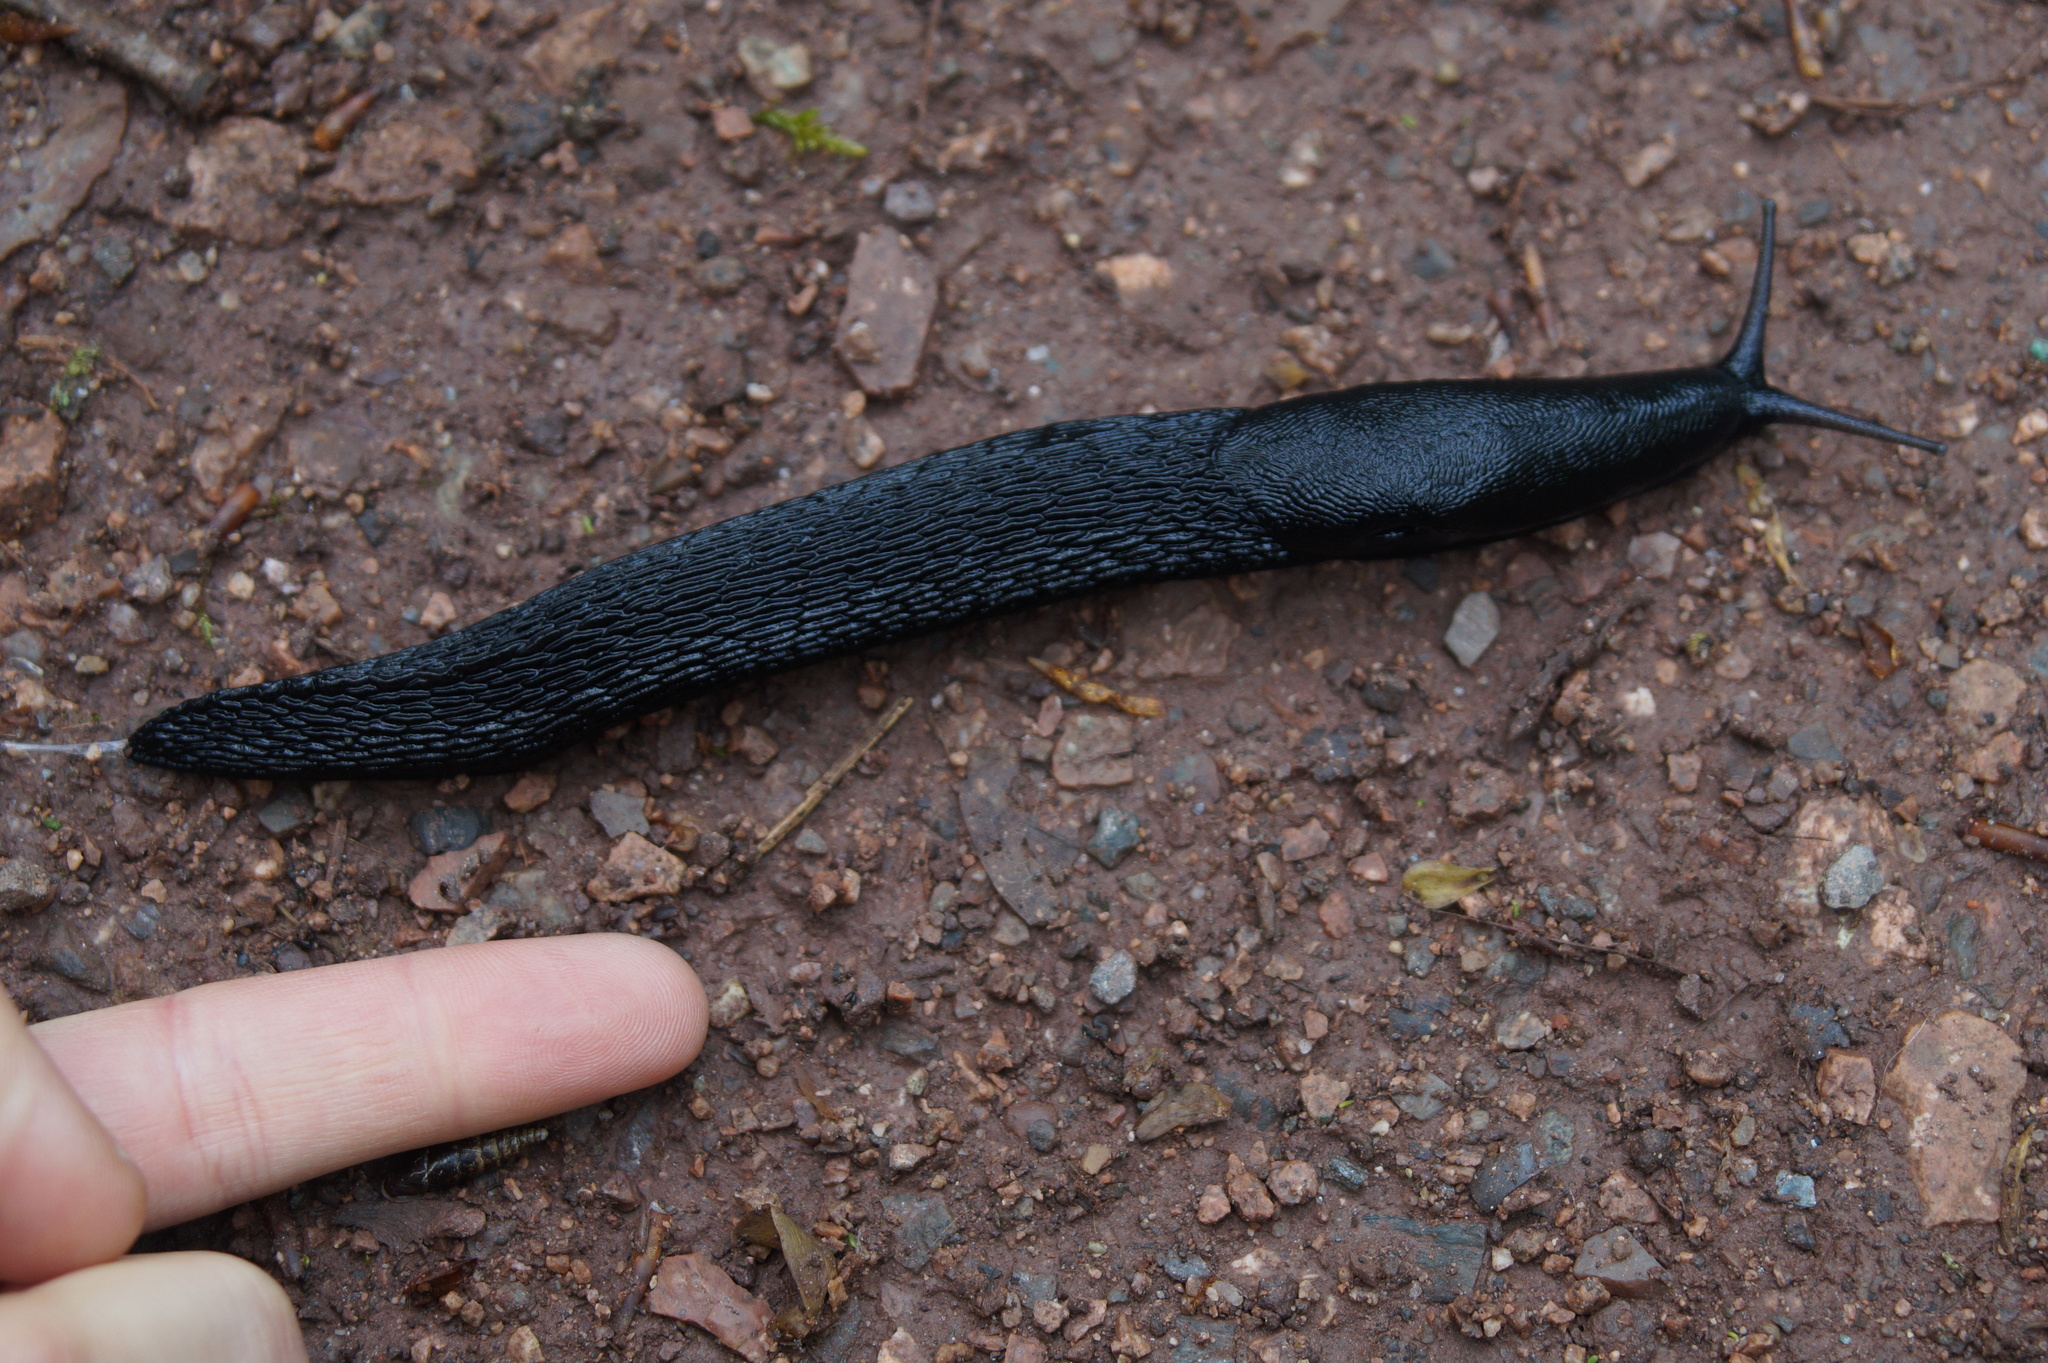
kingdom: Animalia
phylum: Mollusca
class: Gastropoda
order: Stylommatophora
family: Limacidae
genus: Limax
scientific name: Limax cinereoniger
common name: Ash-black slug
